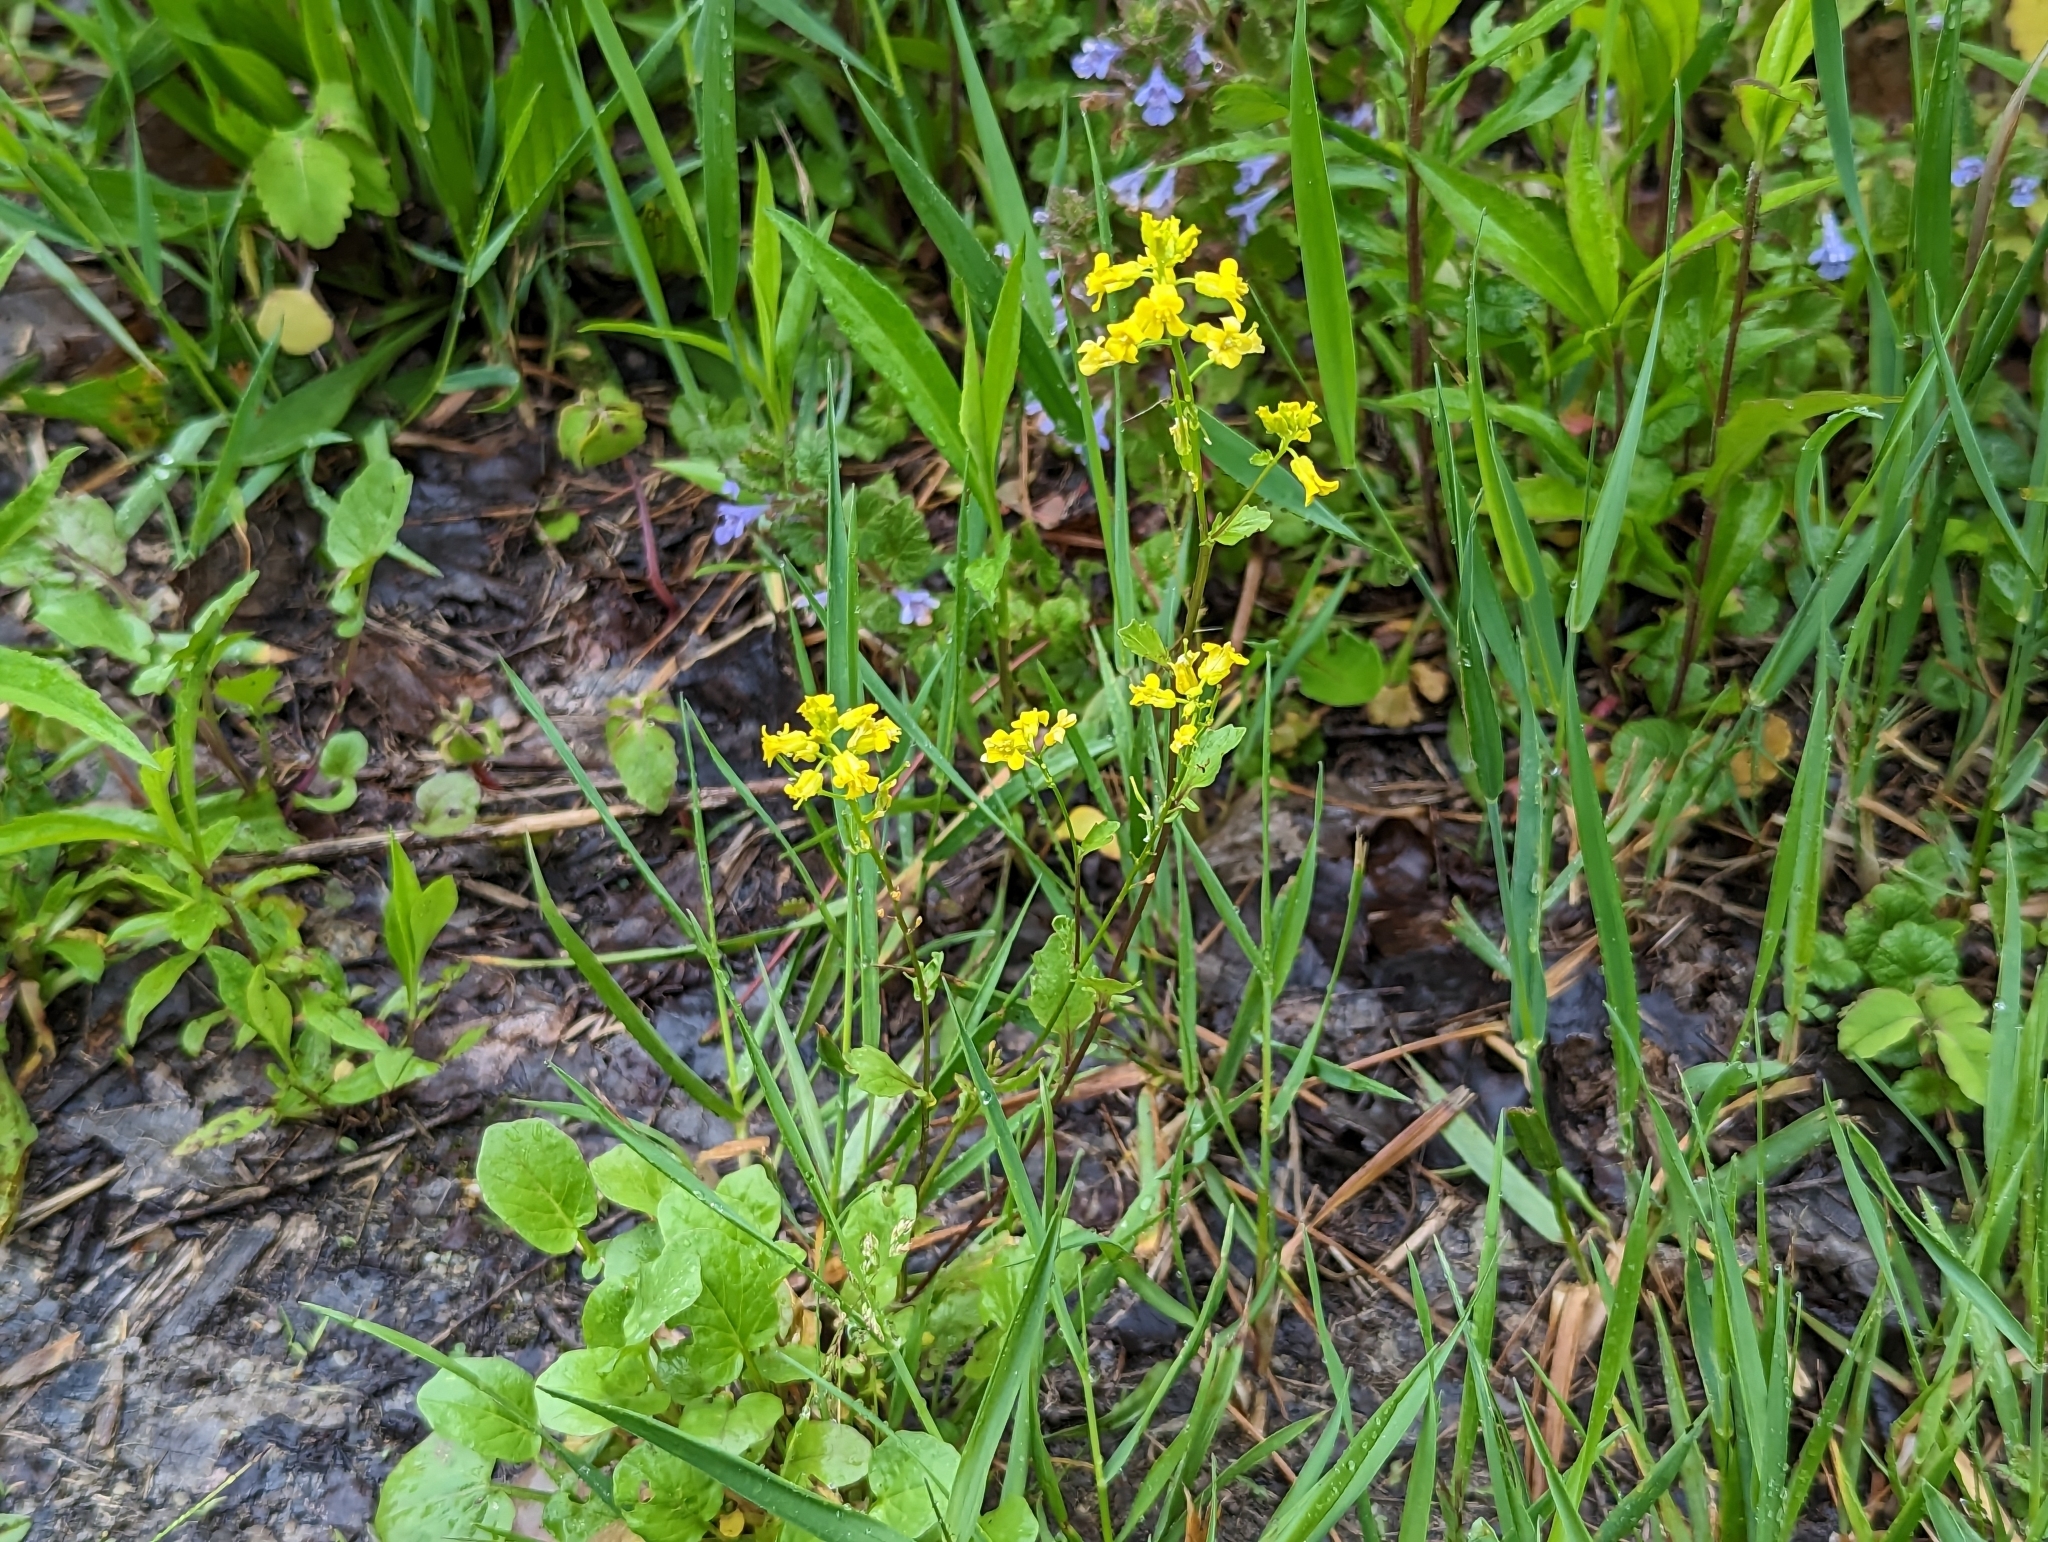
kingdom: Plantae
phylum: Tracheophyta
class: Magnoliopsida
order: Brassicales
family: Brassicaceae
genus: Barbarea
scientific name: Barbarea vulgaris
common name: Cressy-greens
